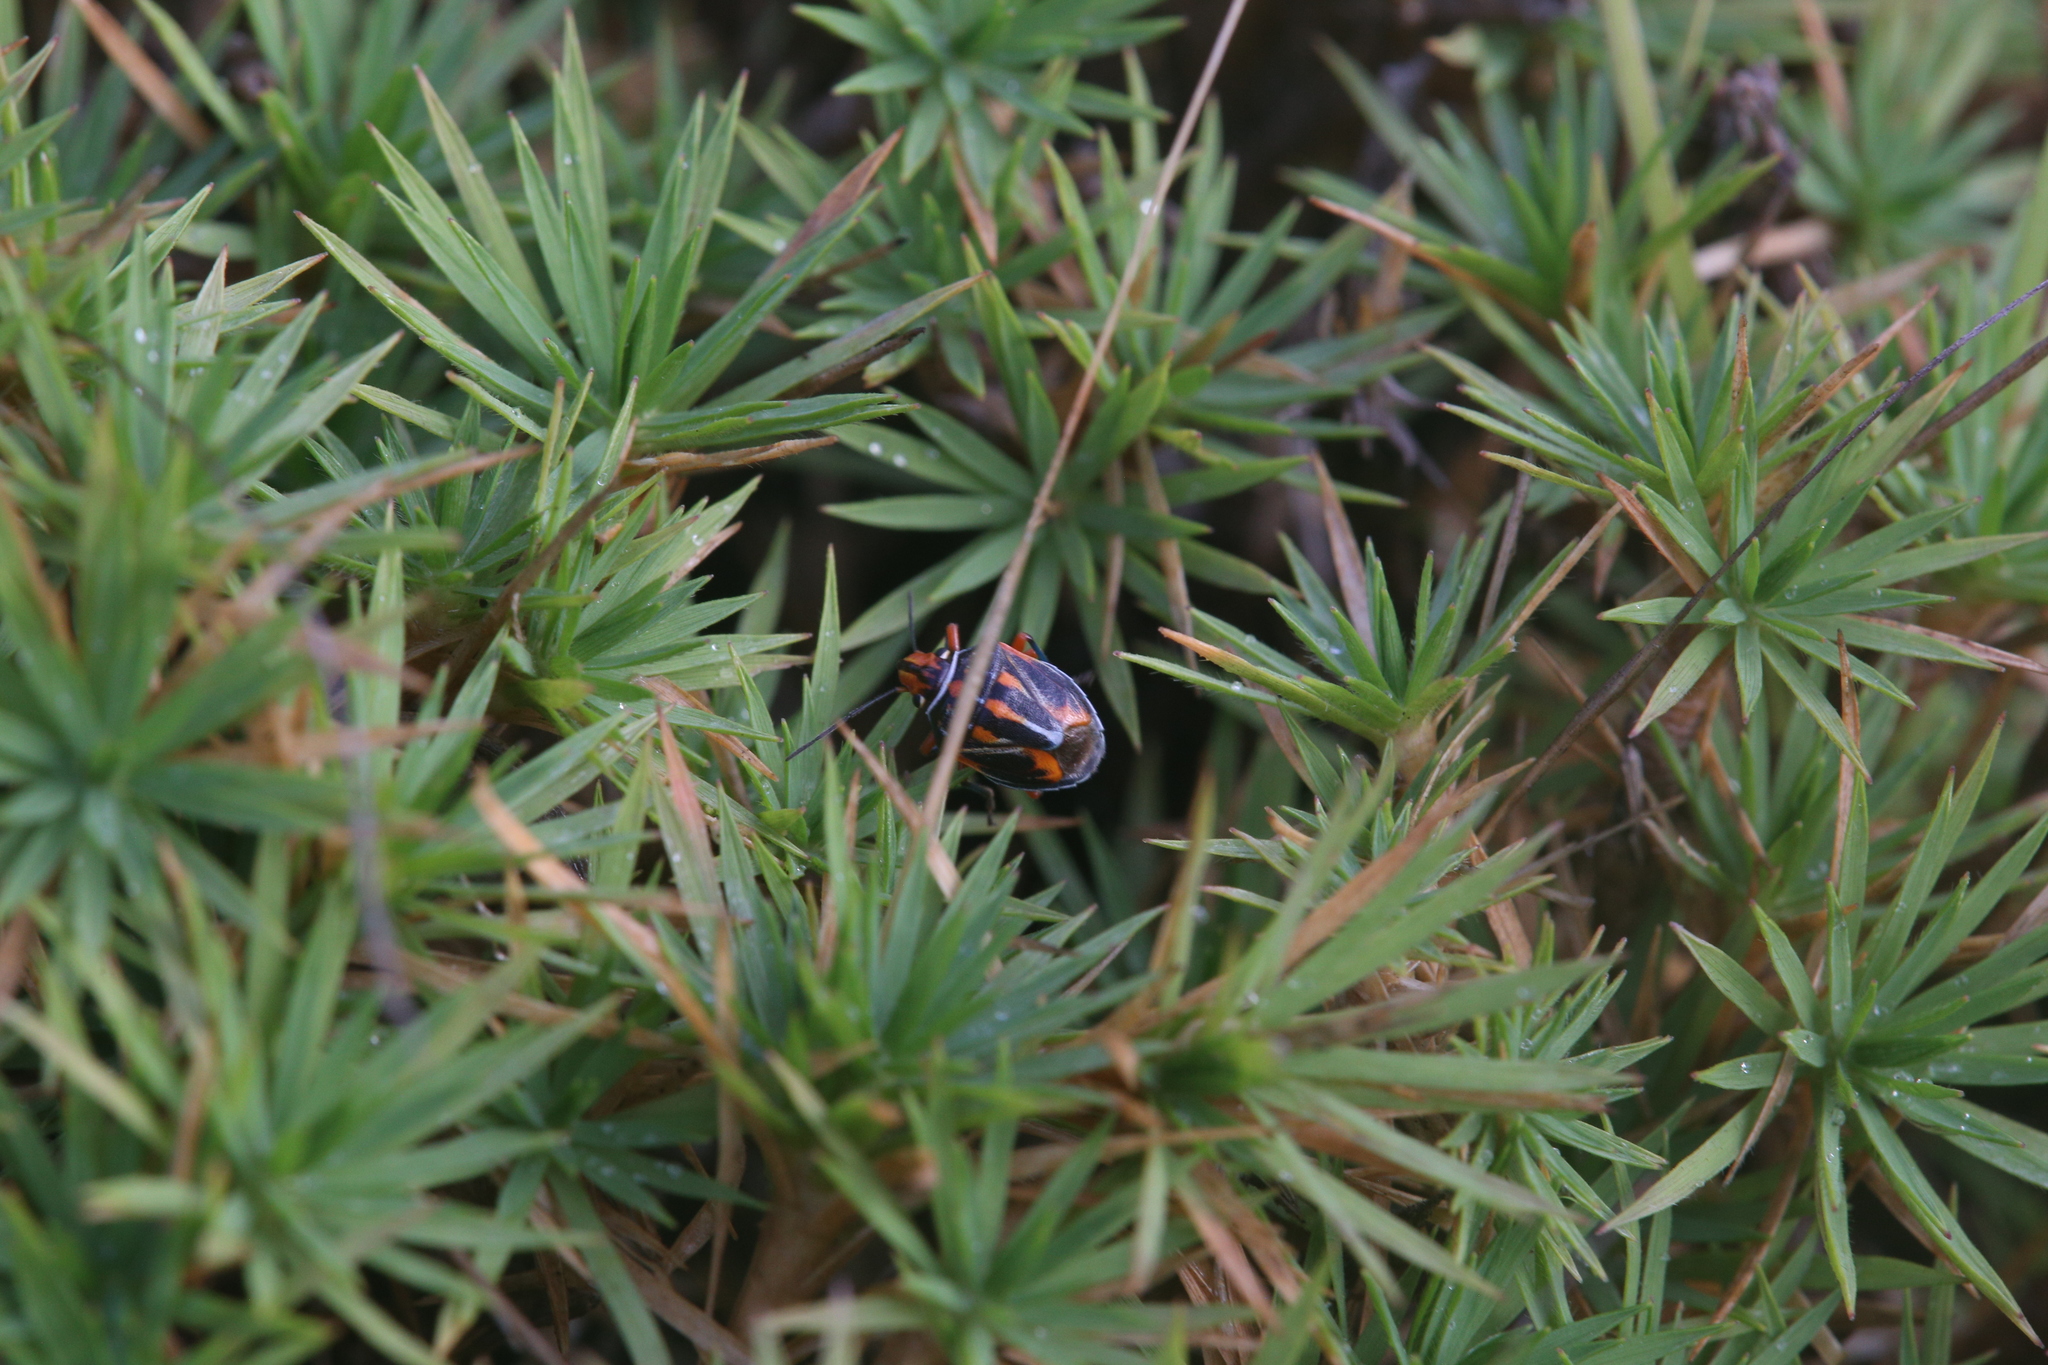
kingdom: Animalia
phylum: Arthropoda
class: Insecta
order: Hemiptera
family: Pentatomidae
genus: Novatilla
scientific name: Novatilla
